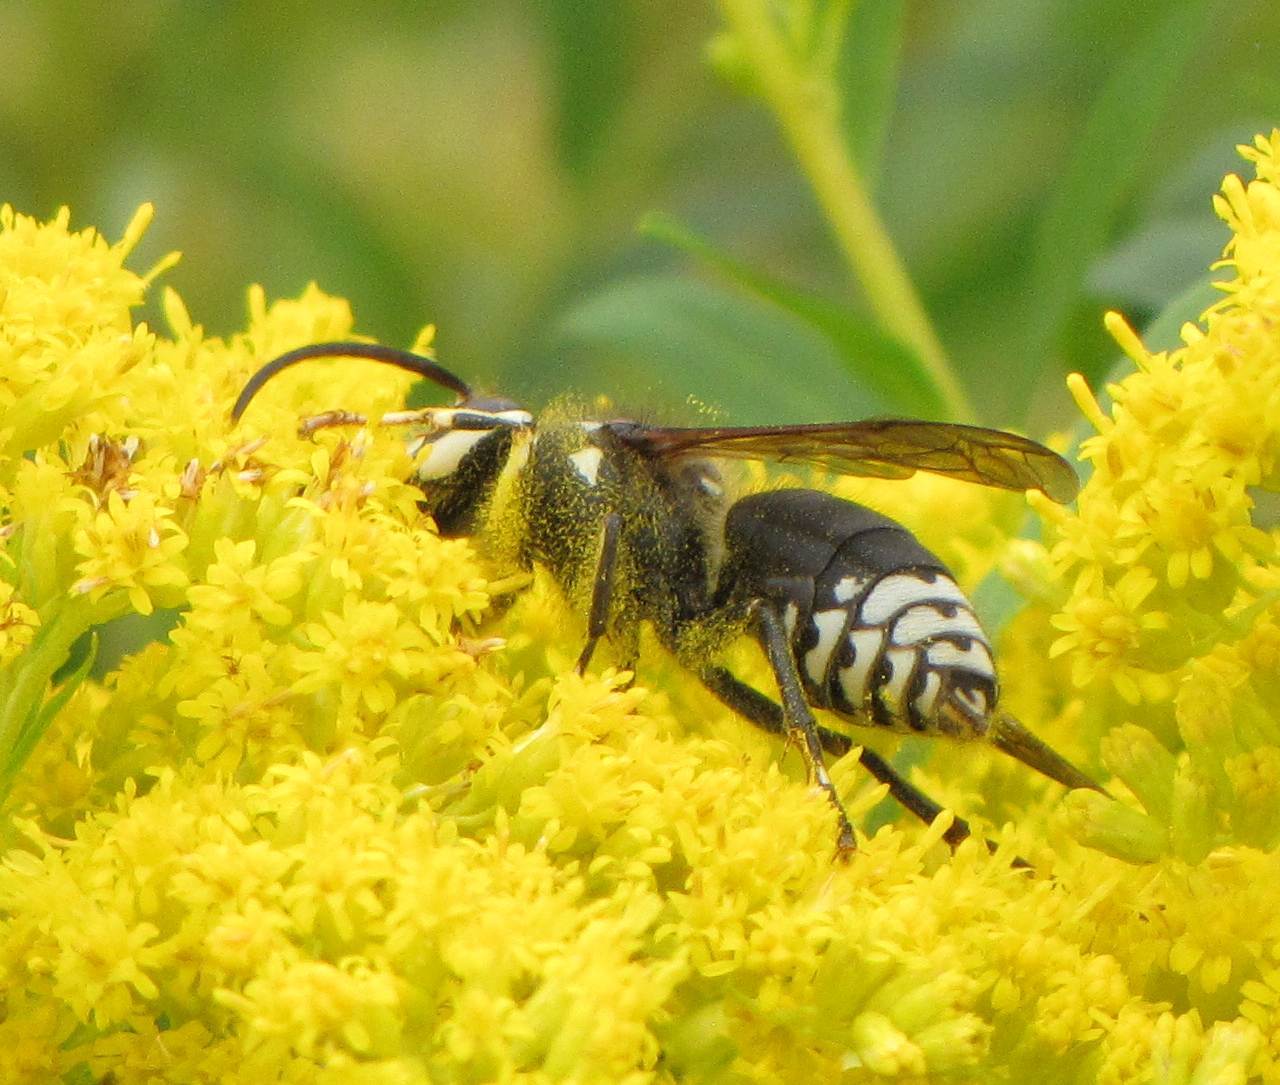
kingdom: Animalia
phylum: Arthropoda
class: Insecta
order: Hymenoptera
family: Vespidae
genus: Dolichovespula
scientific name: Dolichovespula maculata
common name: Bald-faced hornet
